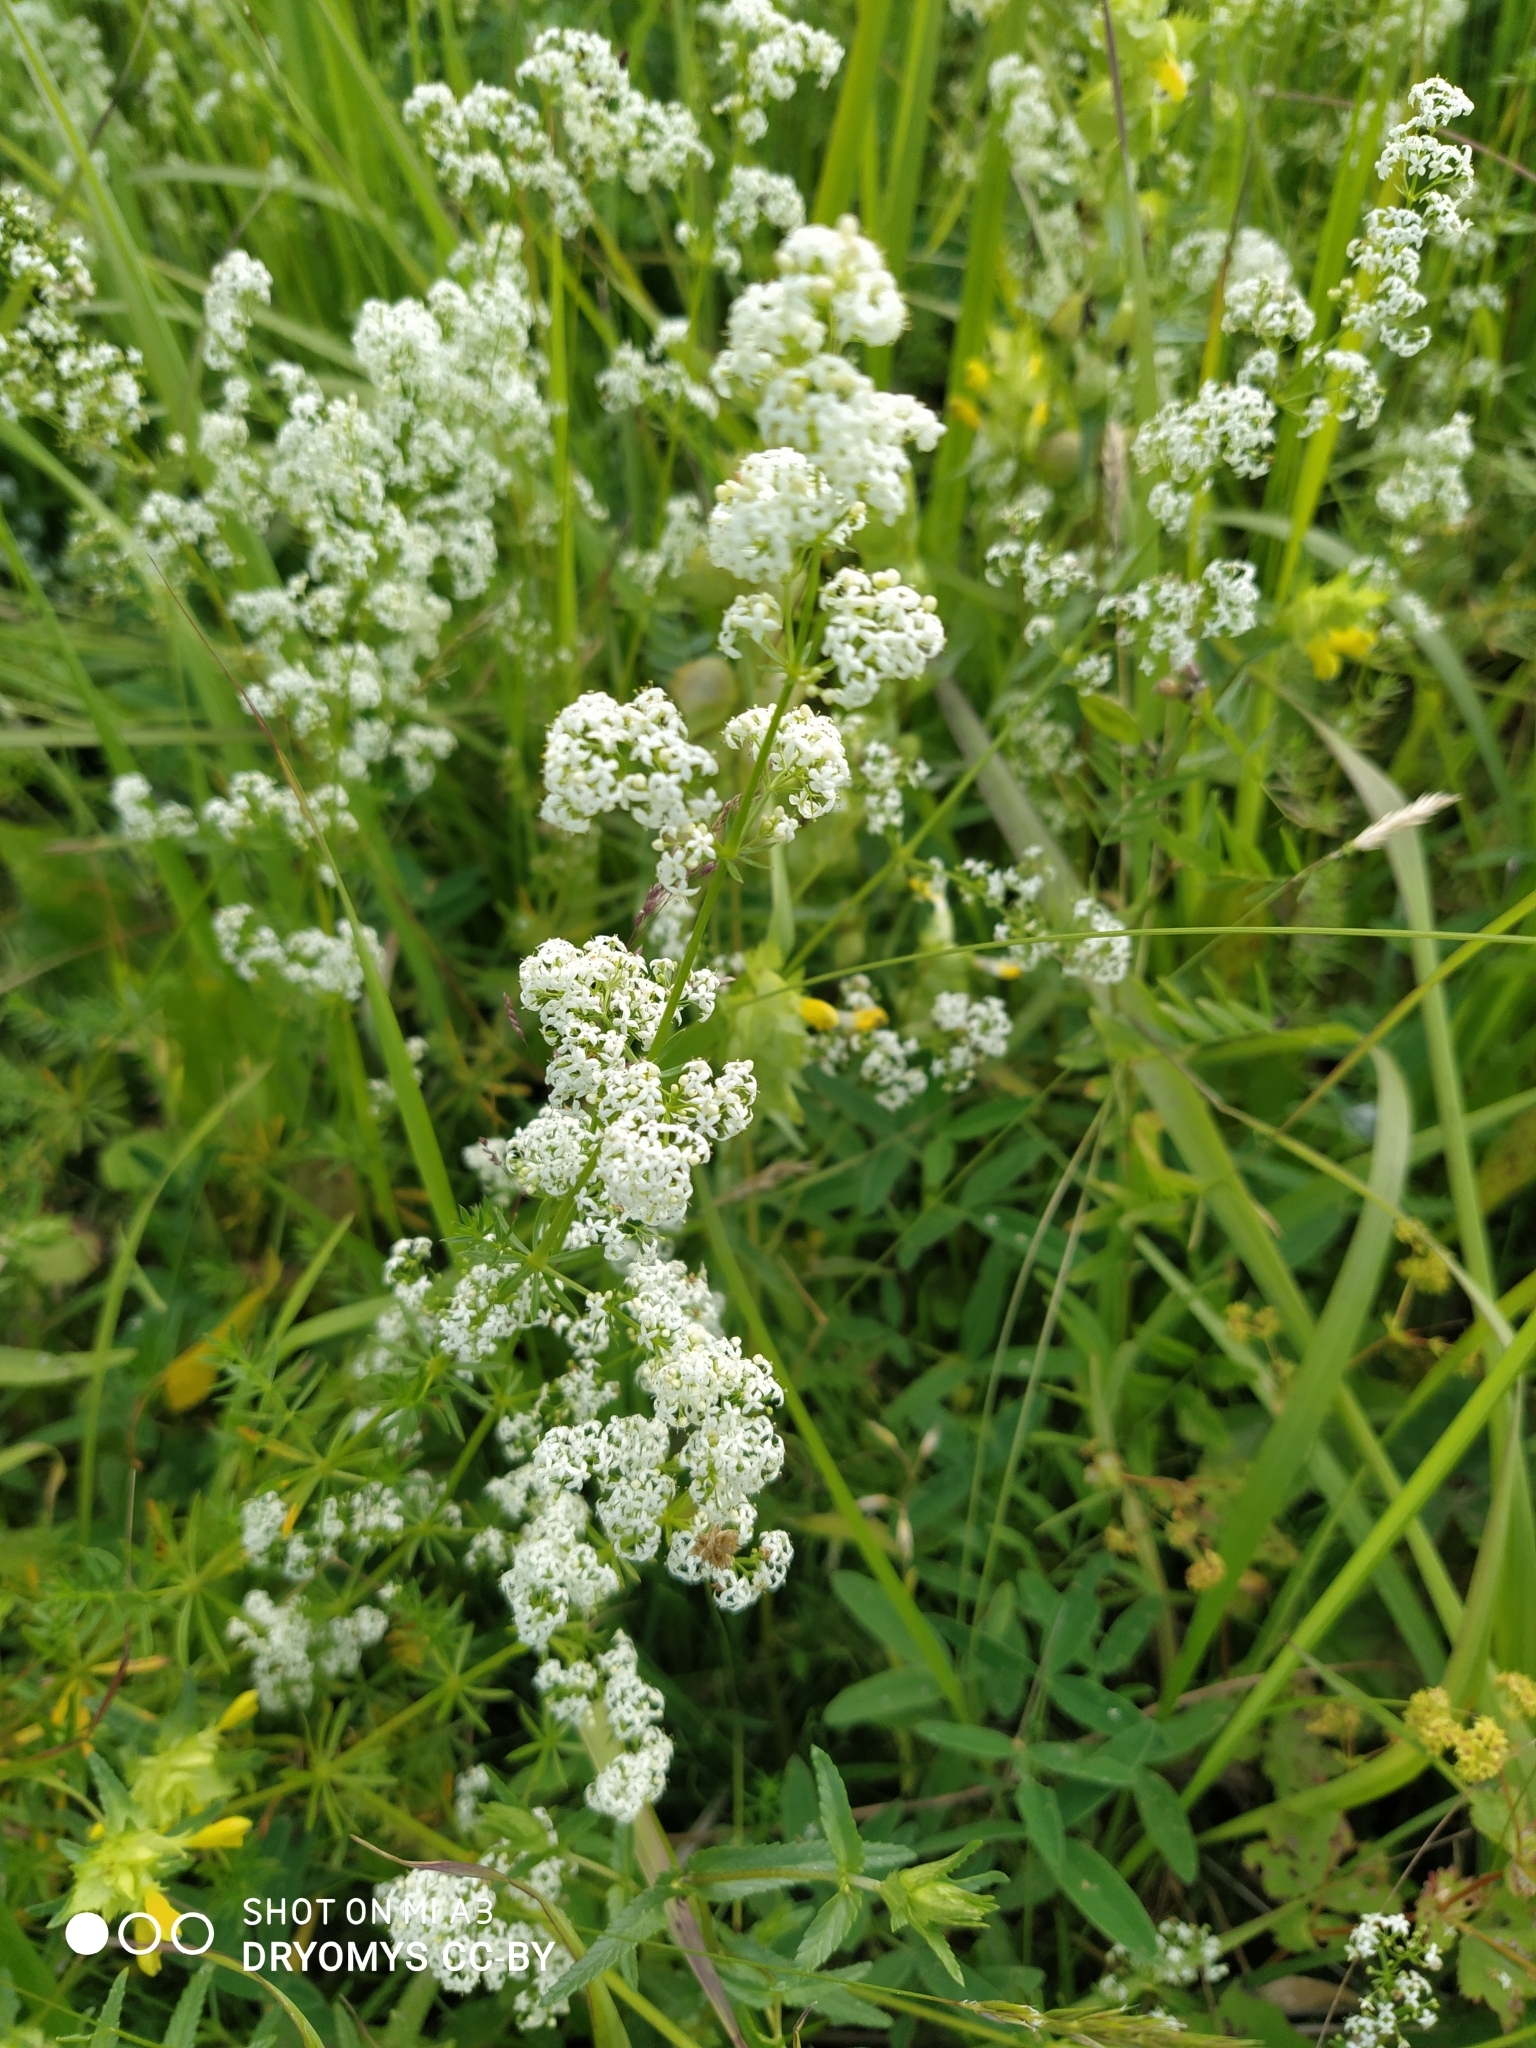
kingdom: Plantae
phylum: Tracheophyta
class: Magnoliopsida
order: Gentianales
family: Rubiaceae
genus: Galium
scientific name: Galium mollugo
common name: Hedge bedstraw
